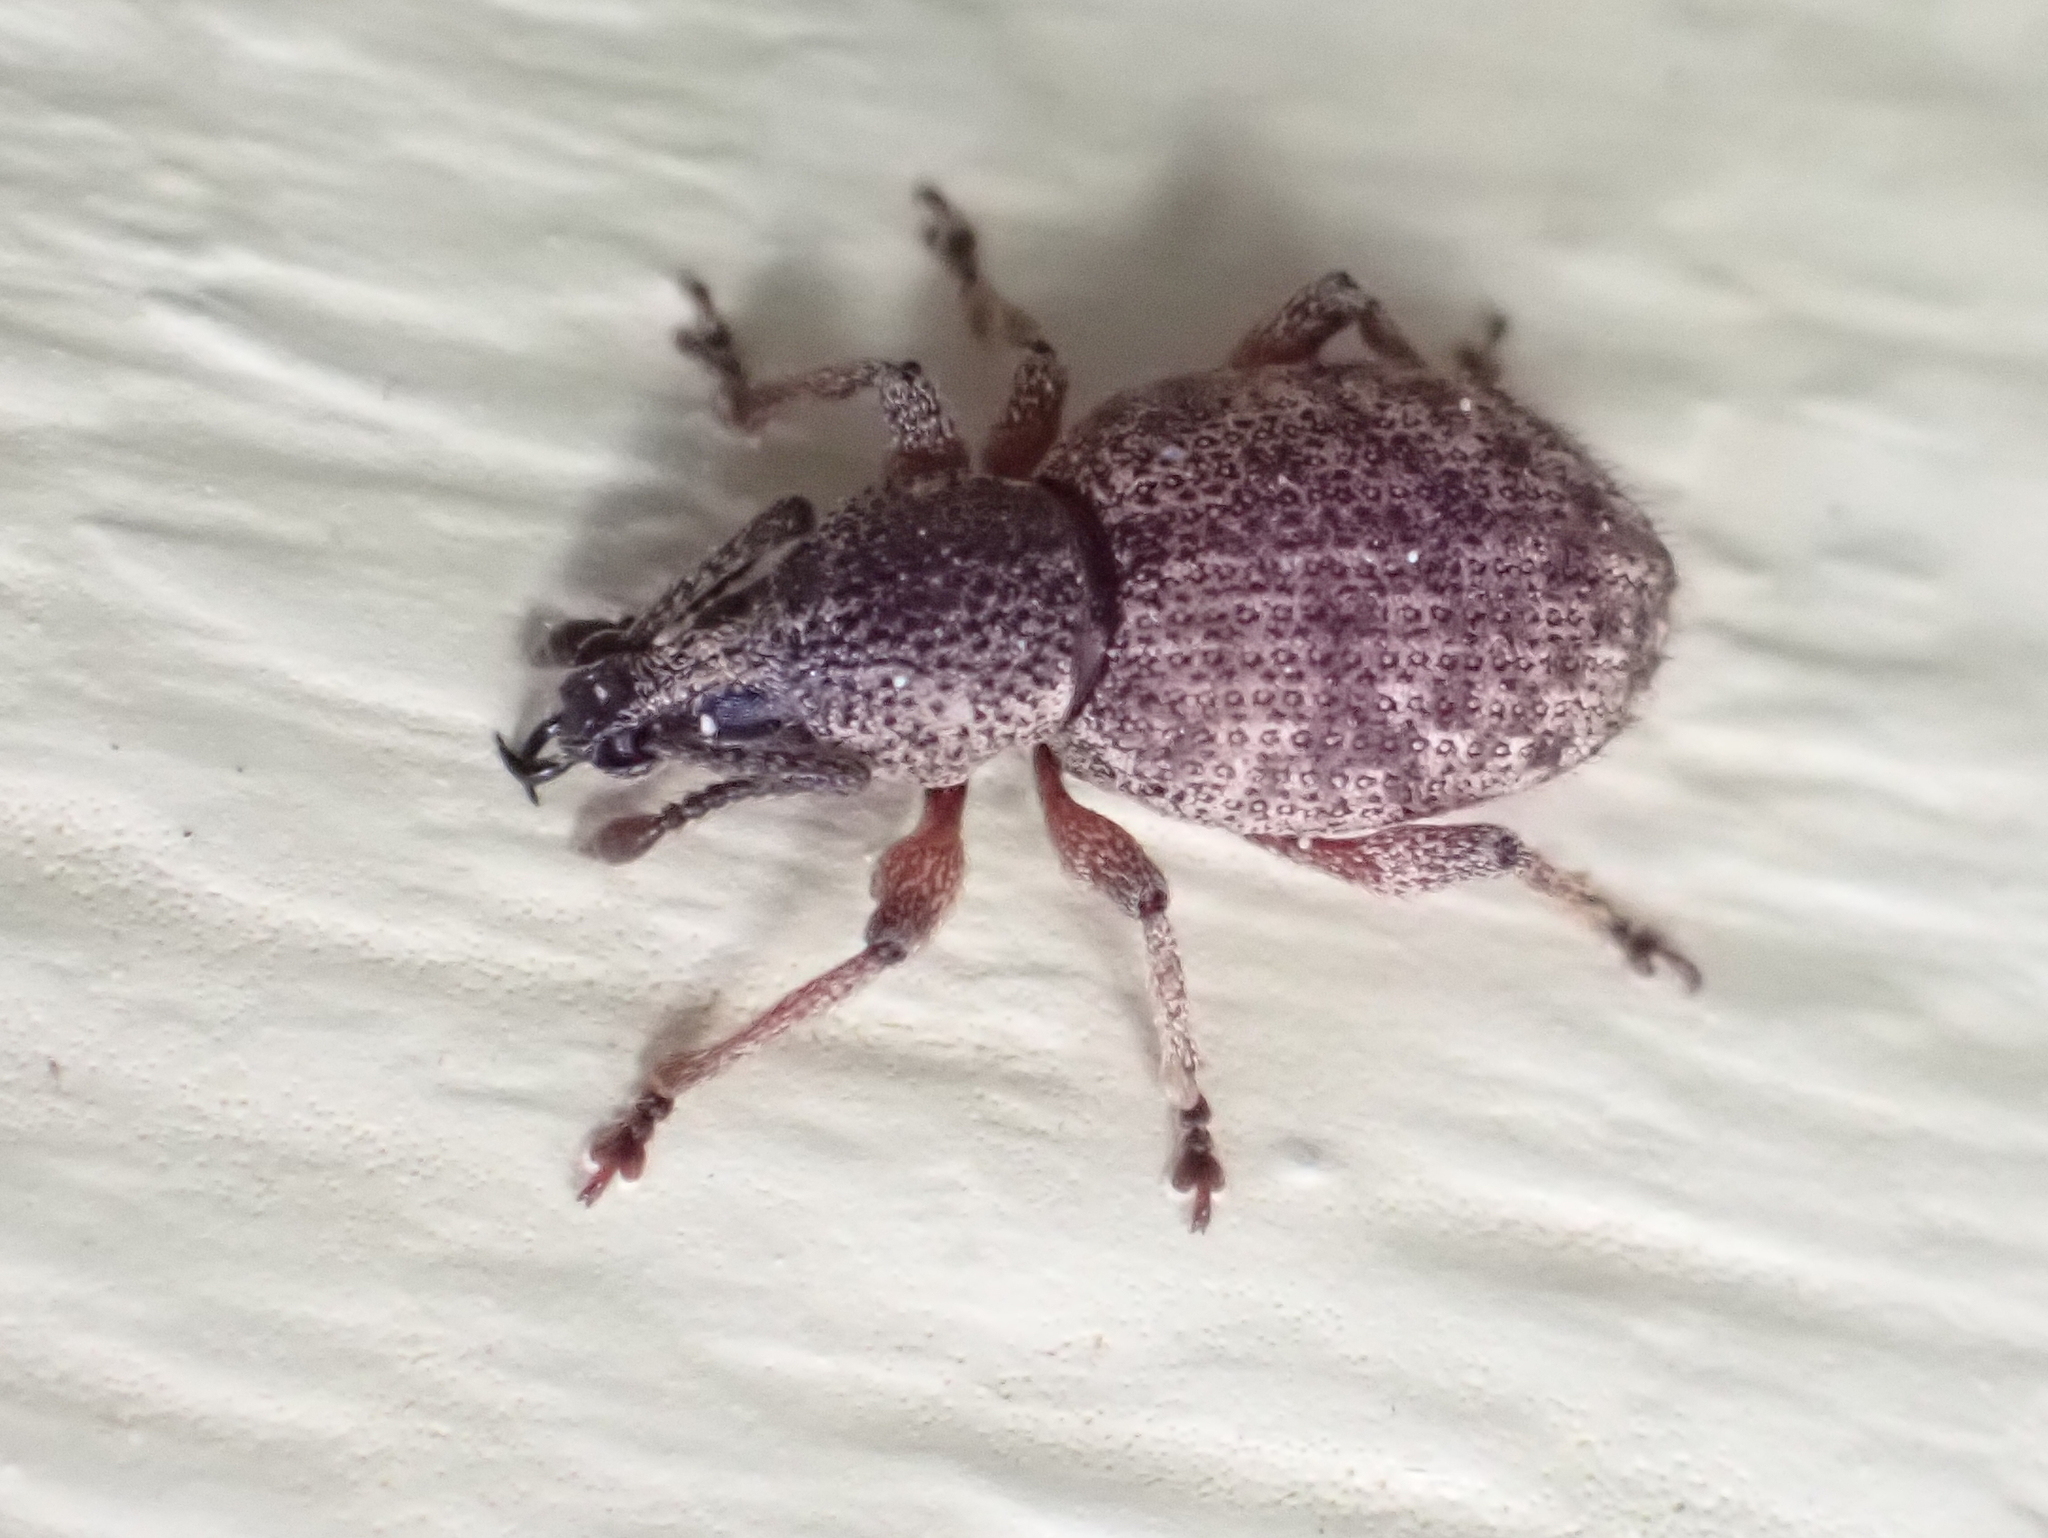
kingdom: Animalia
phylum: Arthropoda
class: Insecta
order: Coleoptera
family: Curculionidae
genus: Otiorhynchus
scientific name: Otiorhynchus singularis
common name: Clay-coloured weevil
